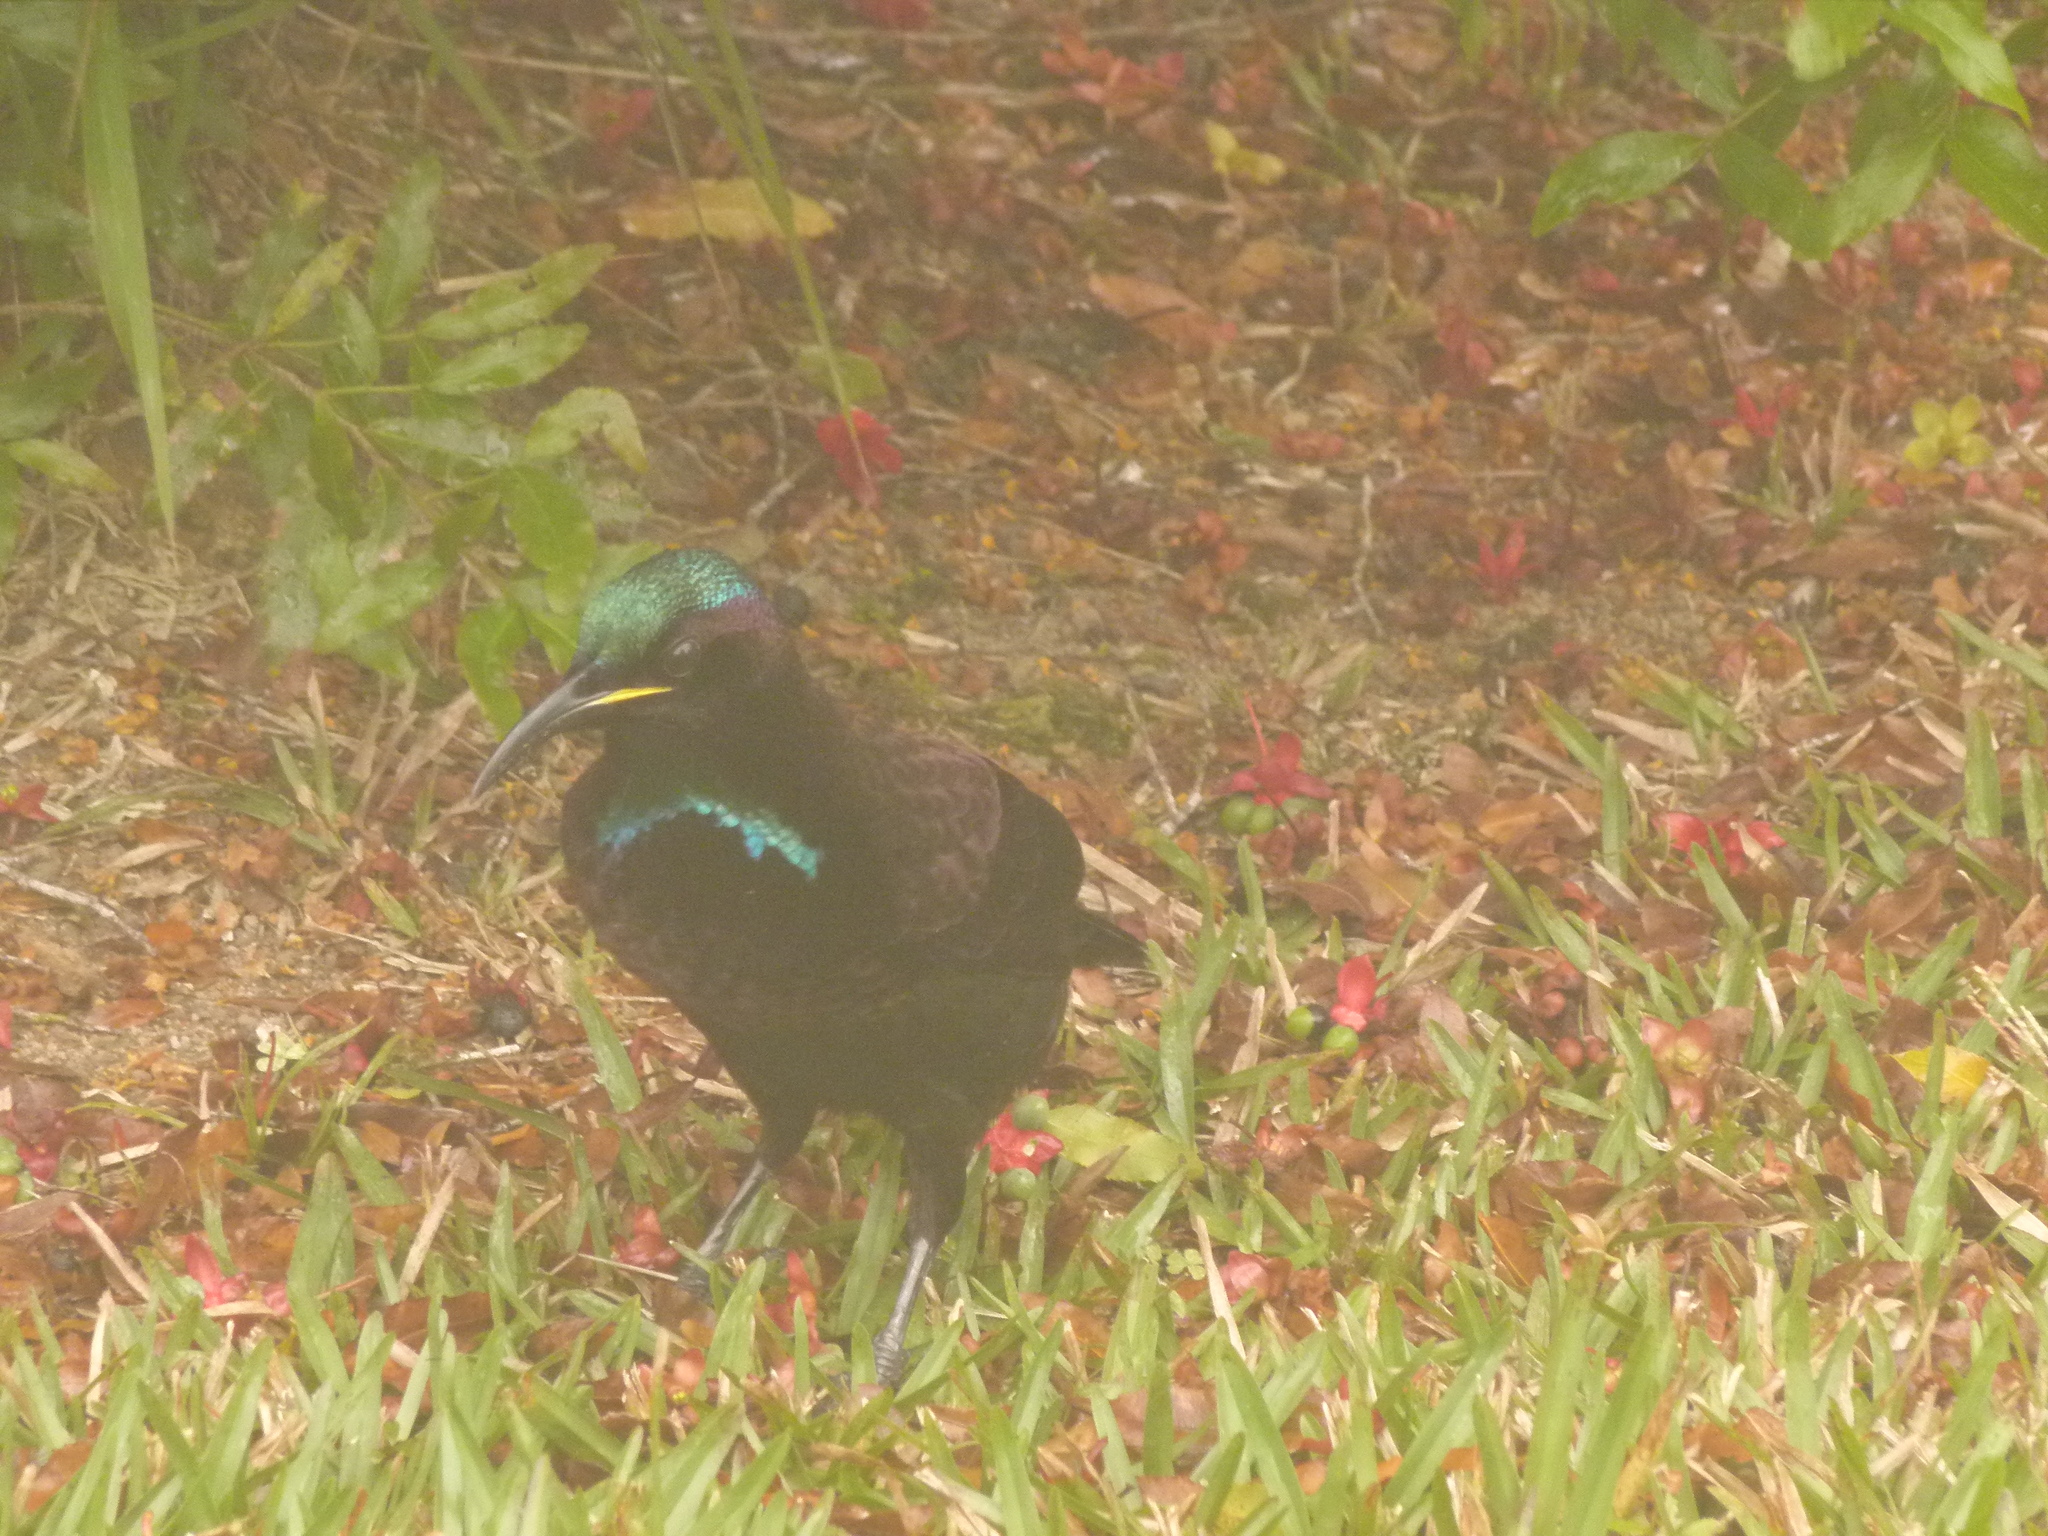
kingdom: Animalia
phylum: Chordata
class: Aves
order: Passeriformes
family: Paradisaeidae
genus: Ptiloris
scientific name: Ptiloris victoriae
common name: Victoria's riflebird
